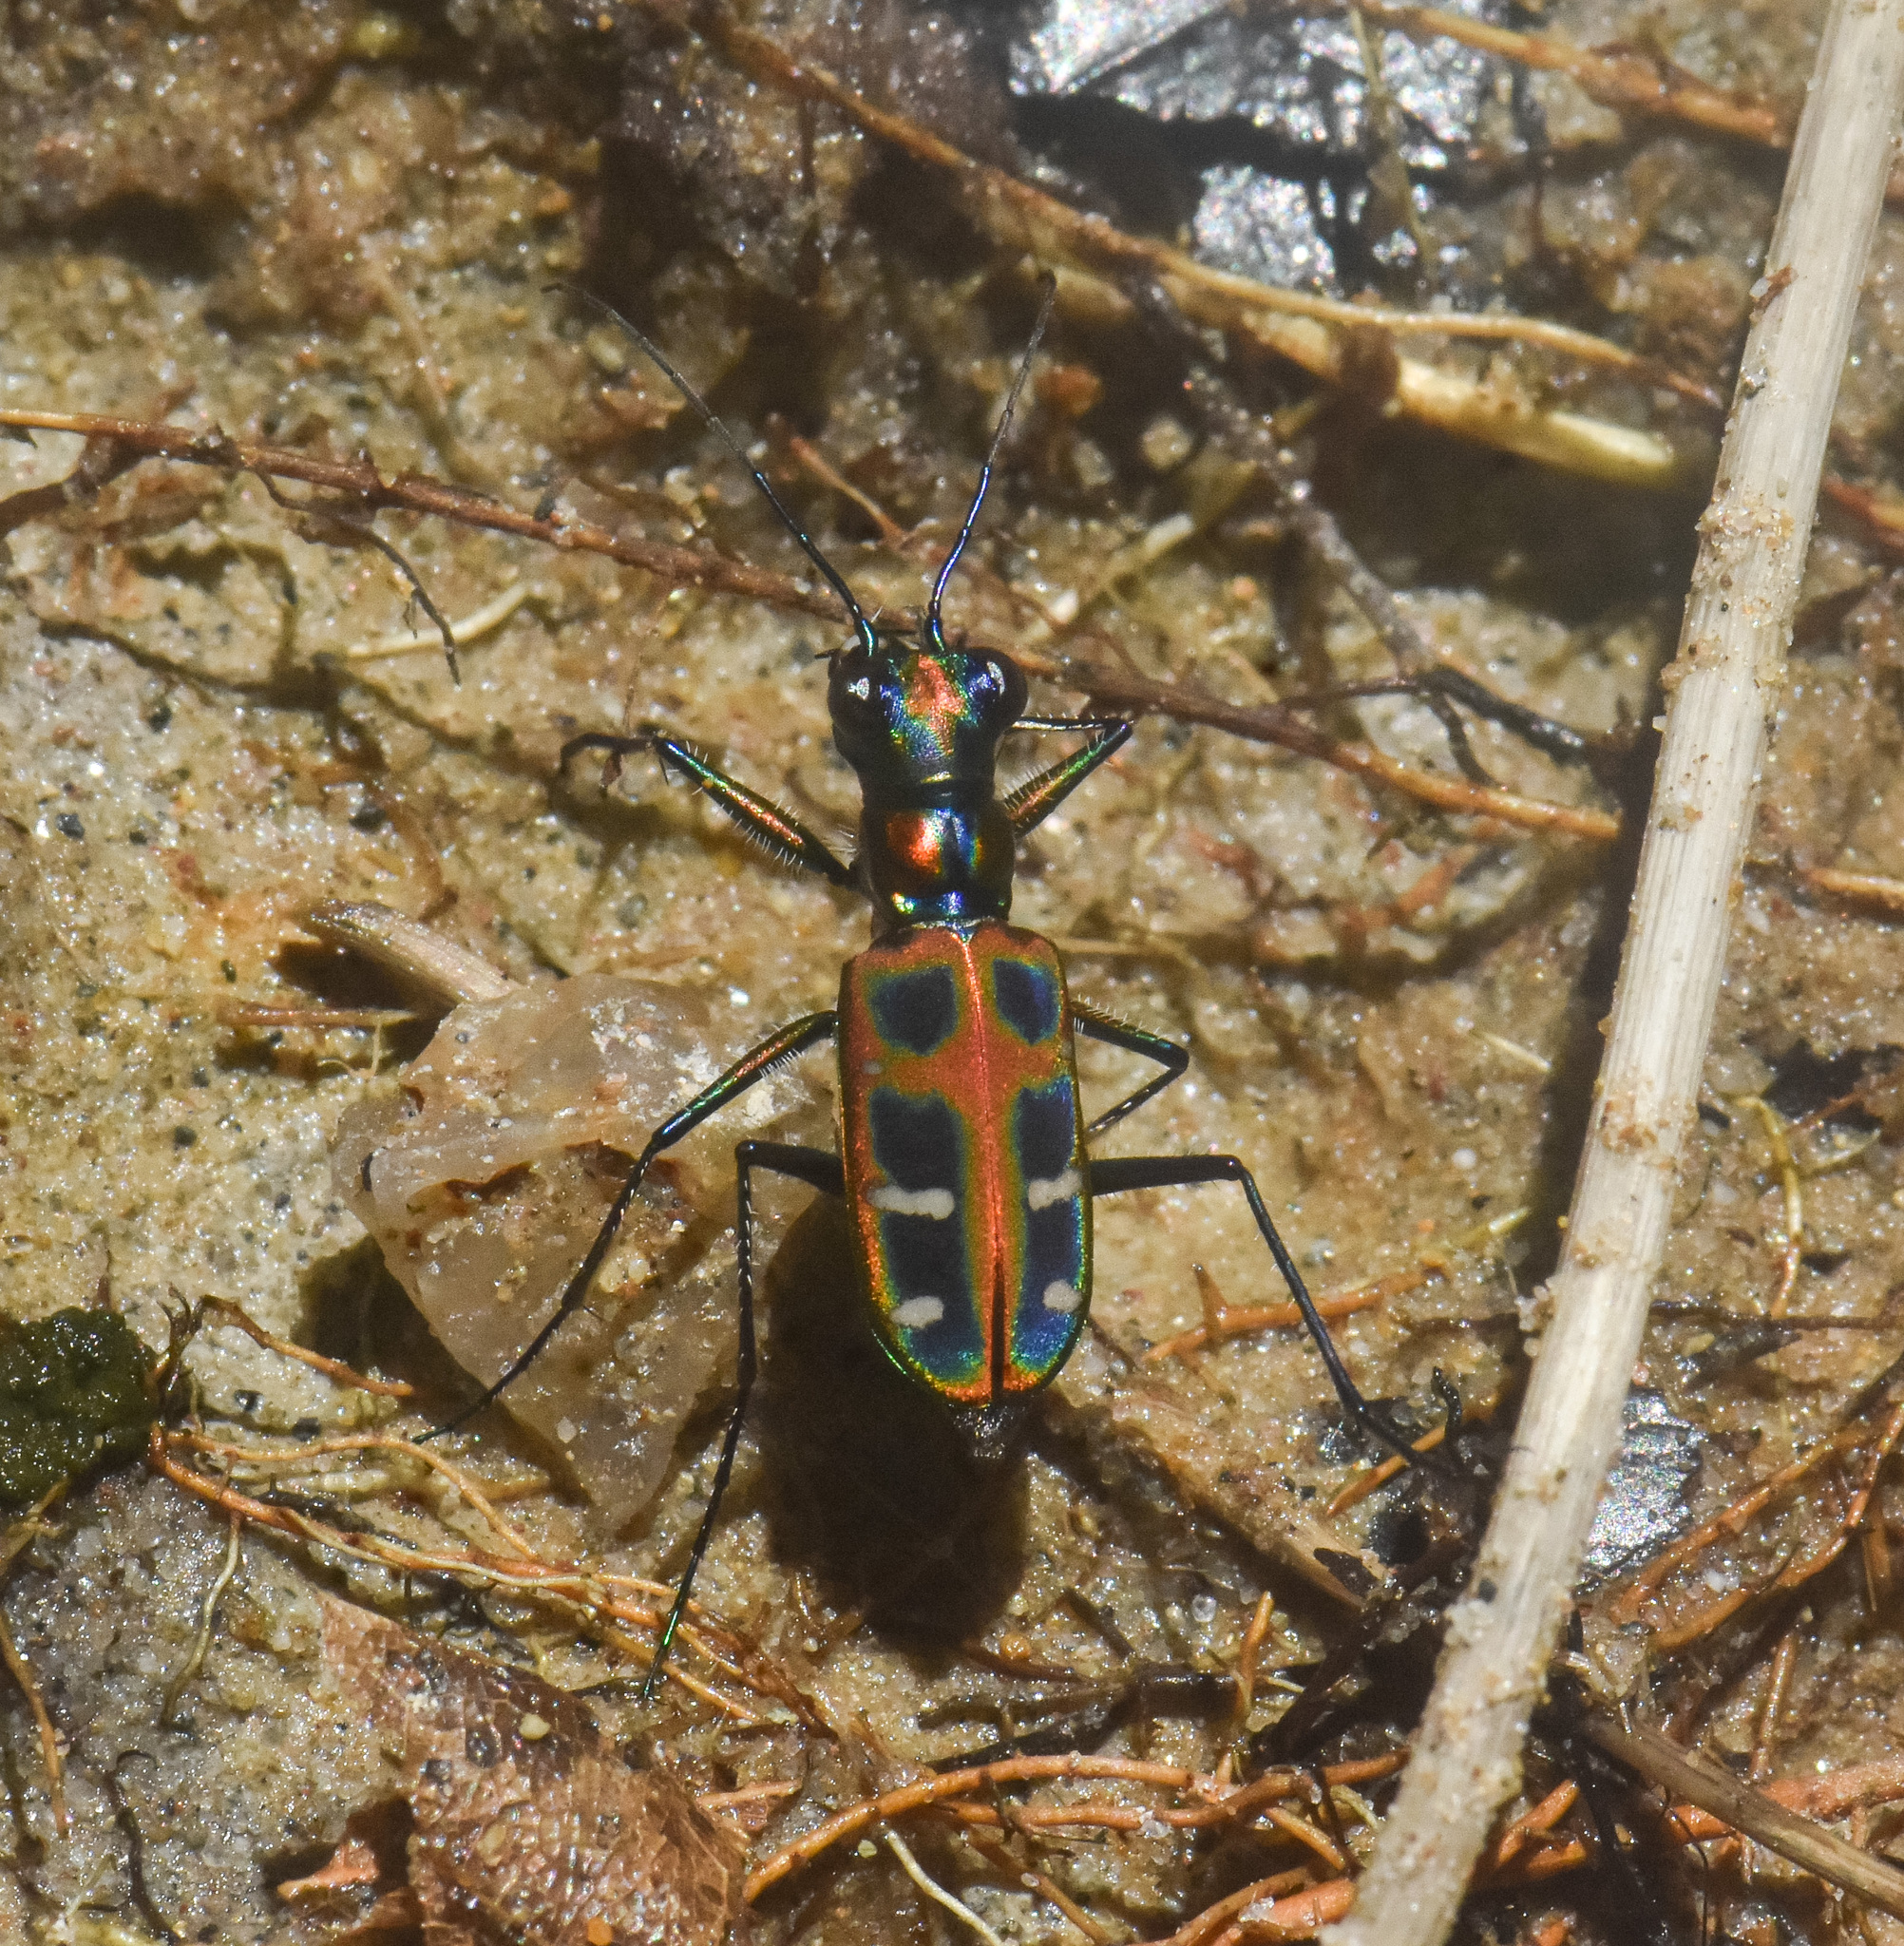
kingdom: Animalia
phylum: Arthropoda
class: Insecta
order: Coleoptera
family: Carabidae
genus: Cicindela
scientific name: Cicindela barmanica
